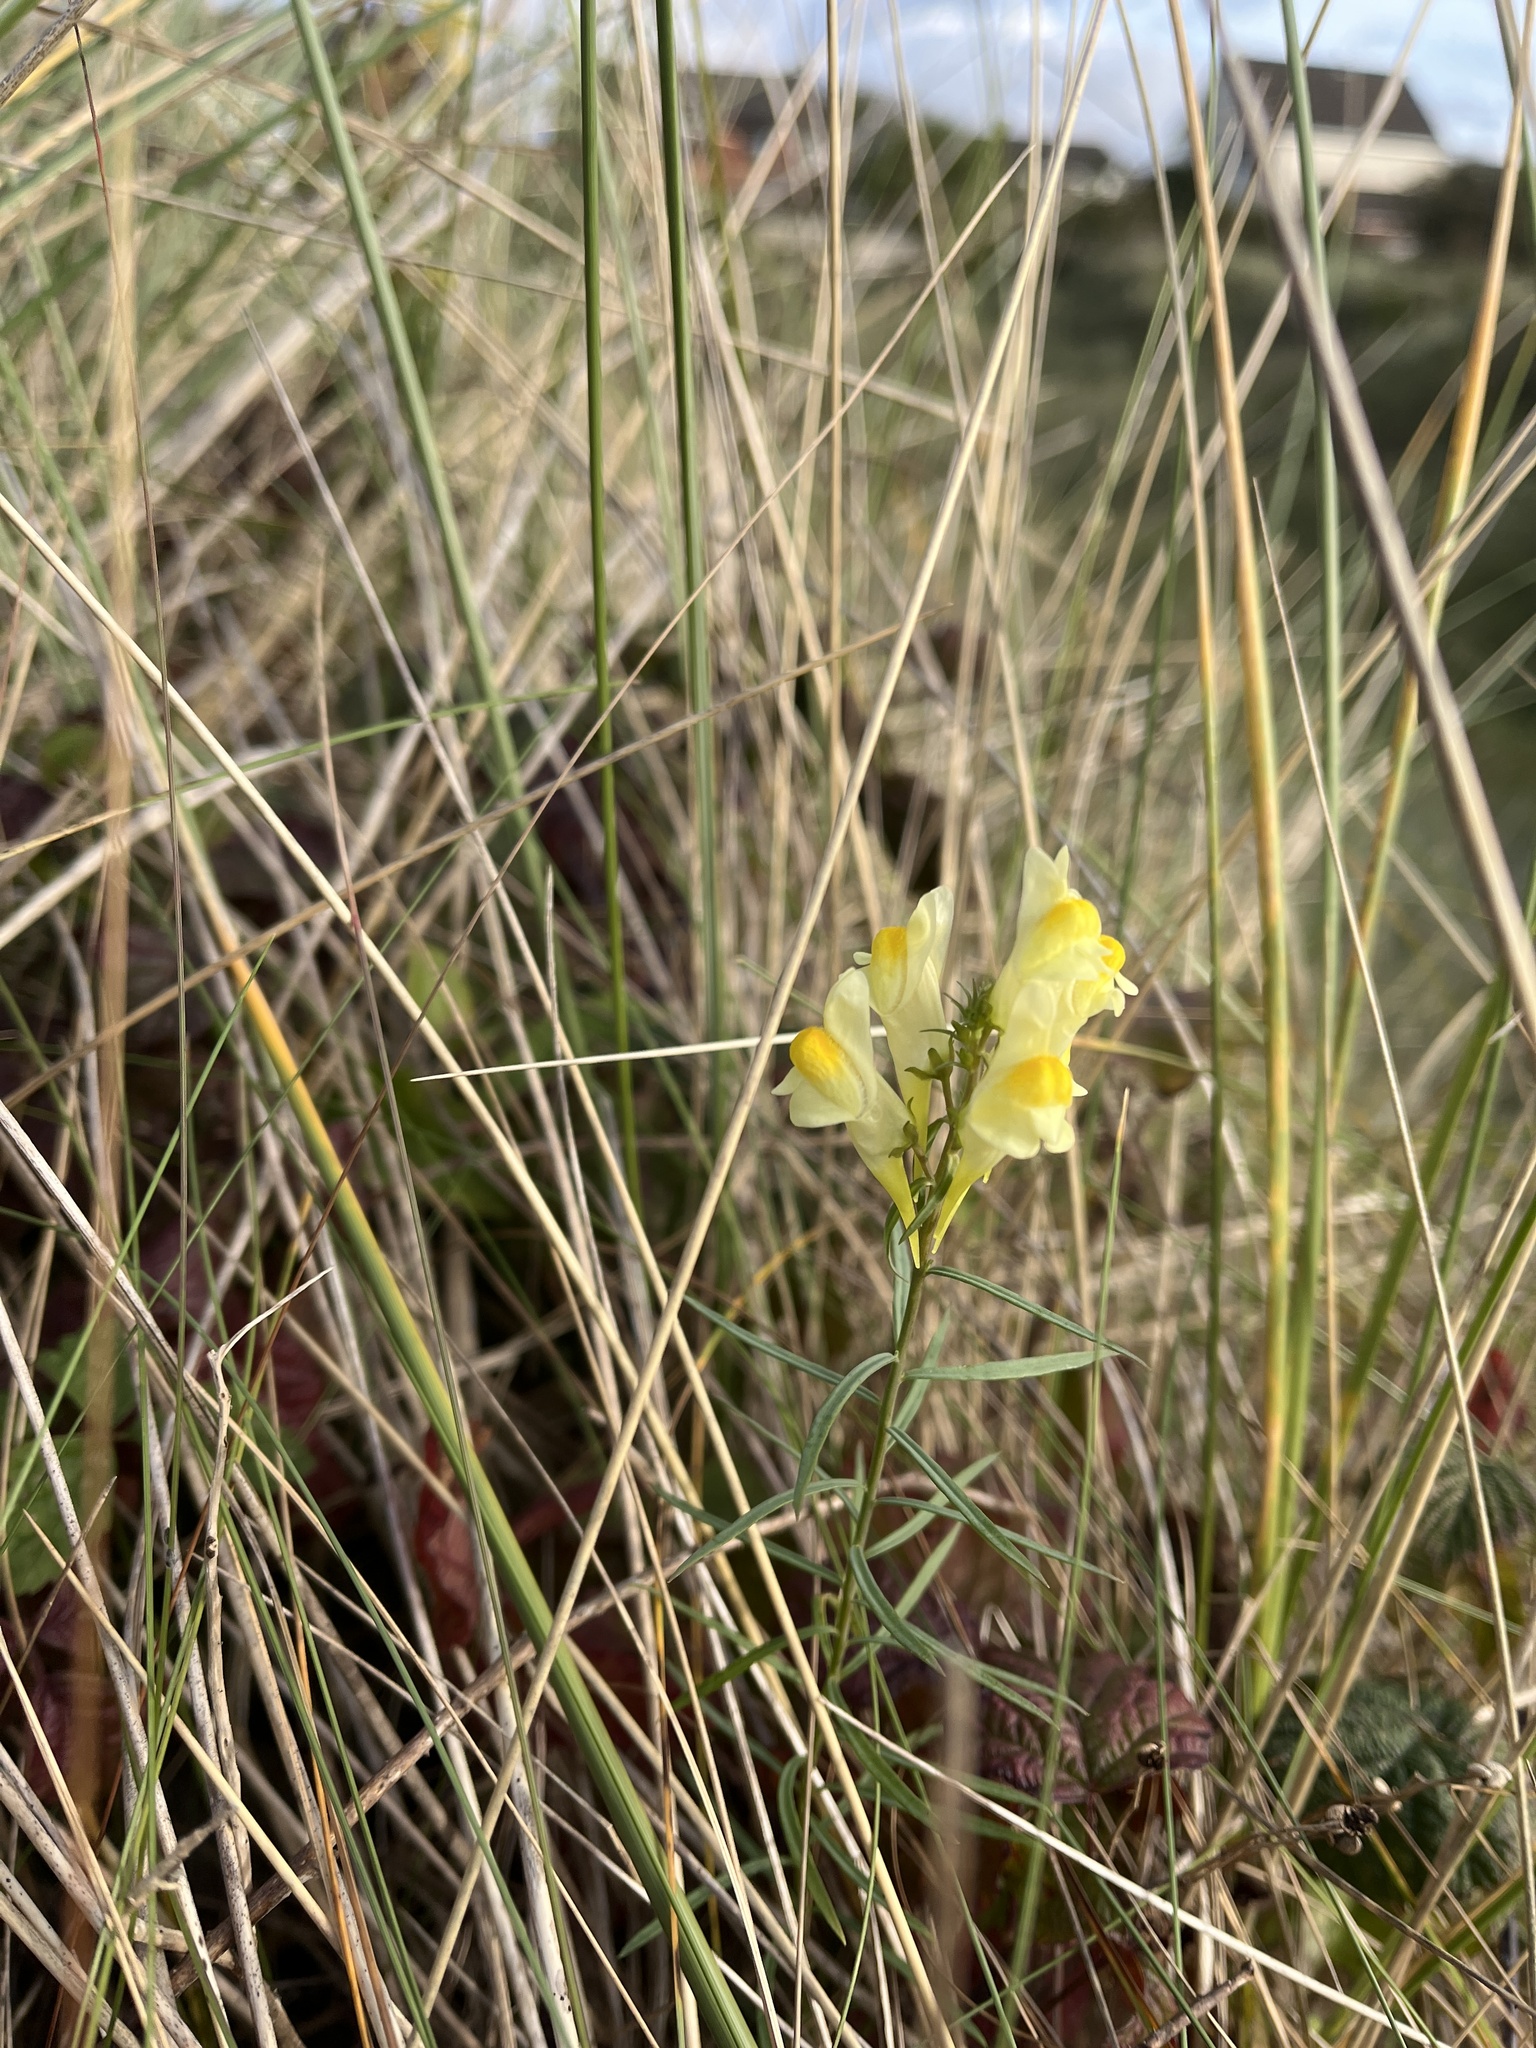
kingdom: Plantae
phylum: Tracheophyta
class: Magnoliopsida
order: Lamiales
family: Plantaginaceae
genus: Linaria
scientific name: Linaria vulgaris
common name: Butter and eggs
